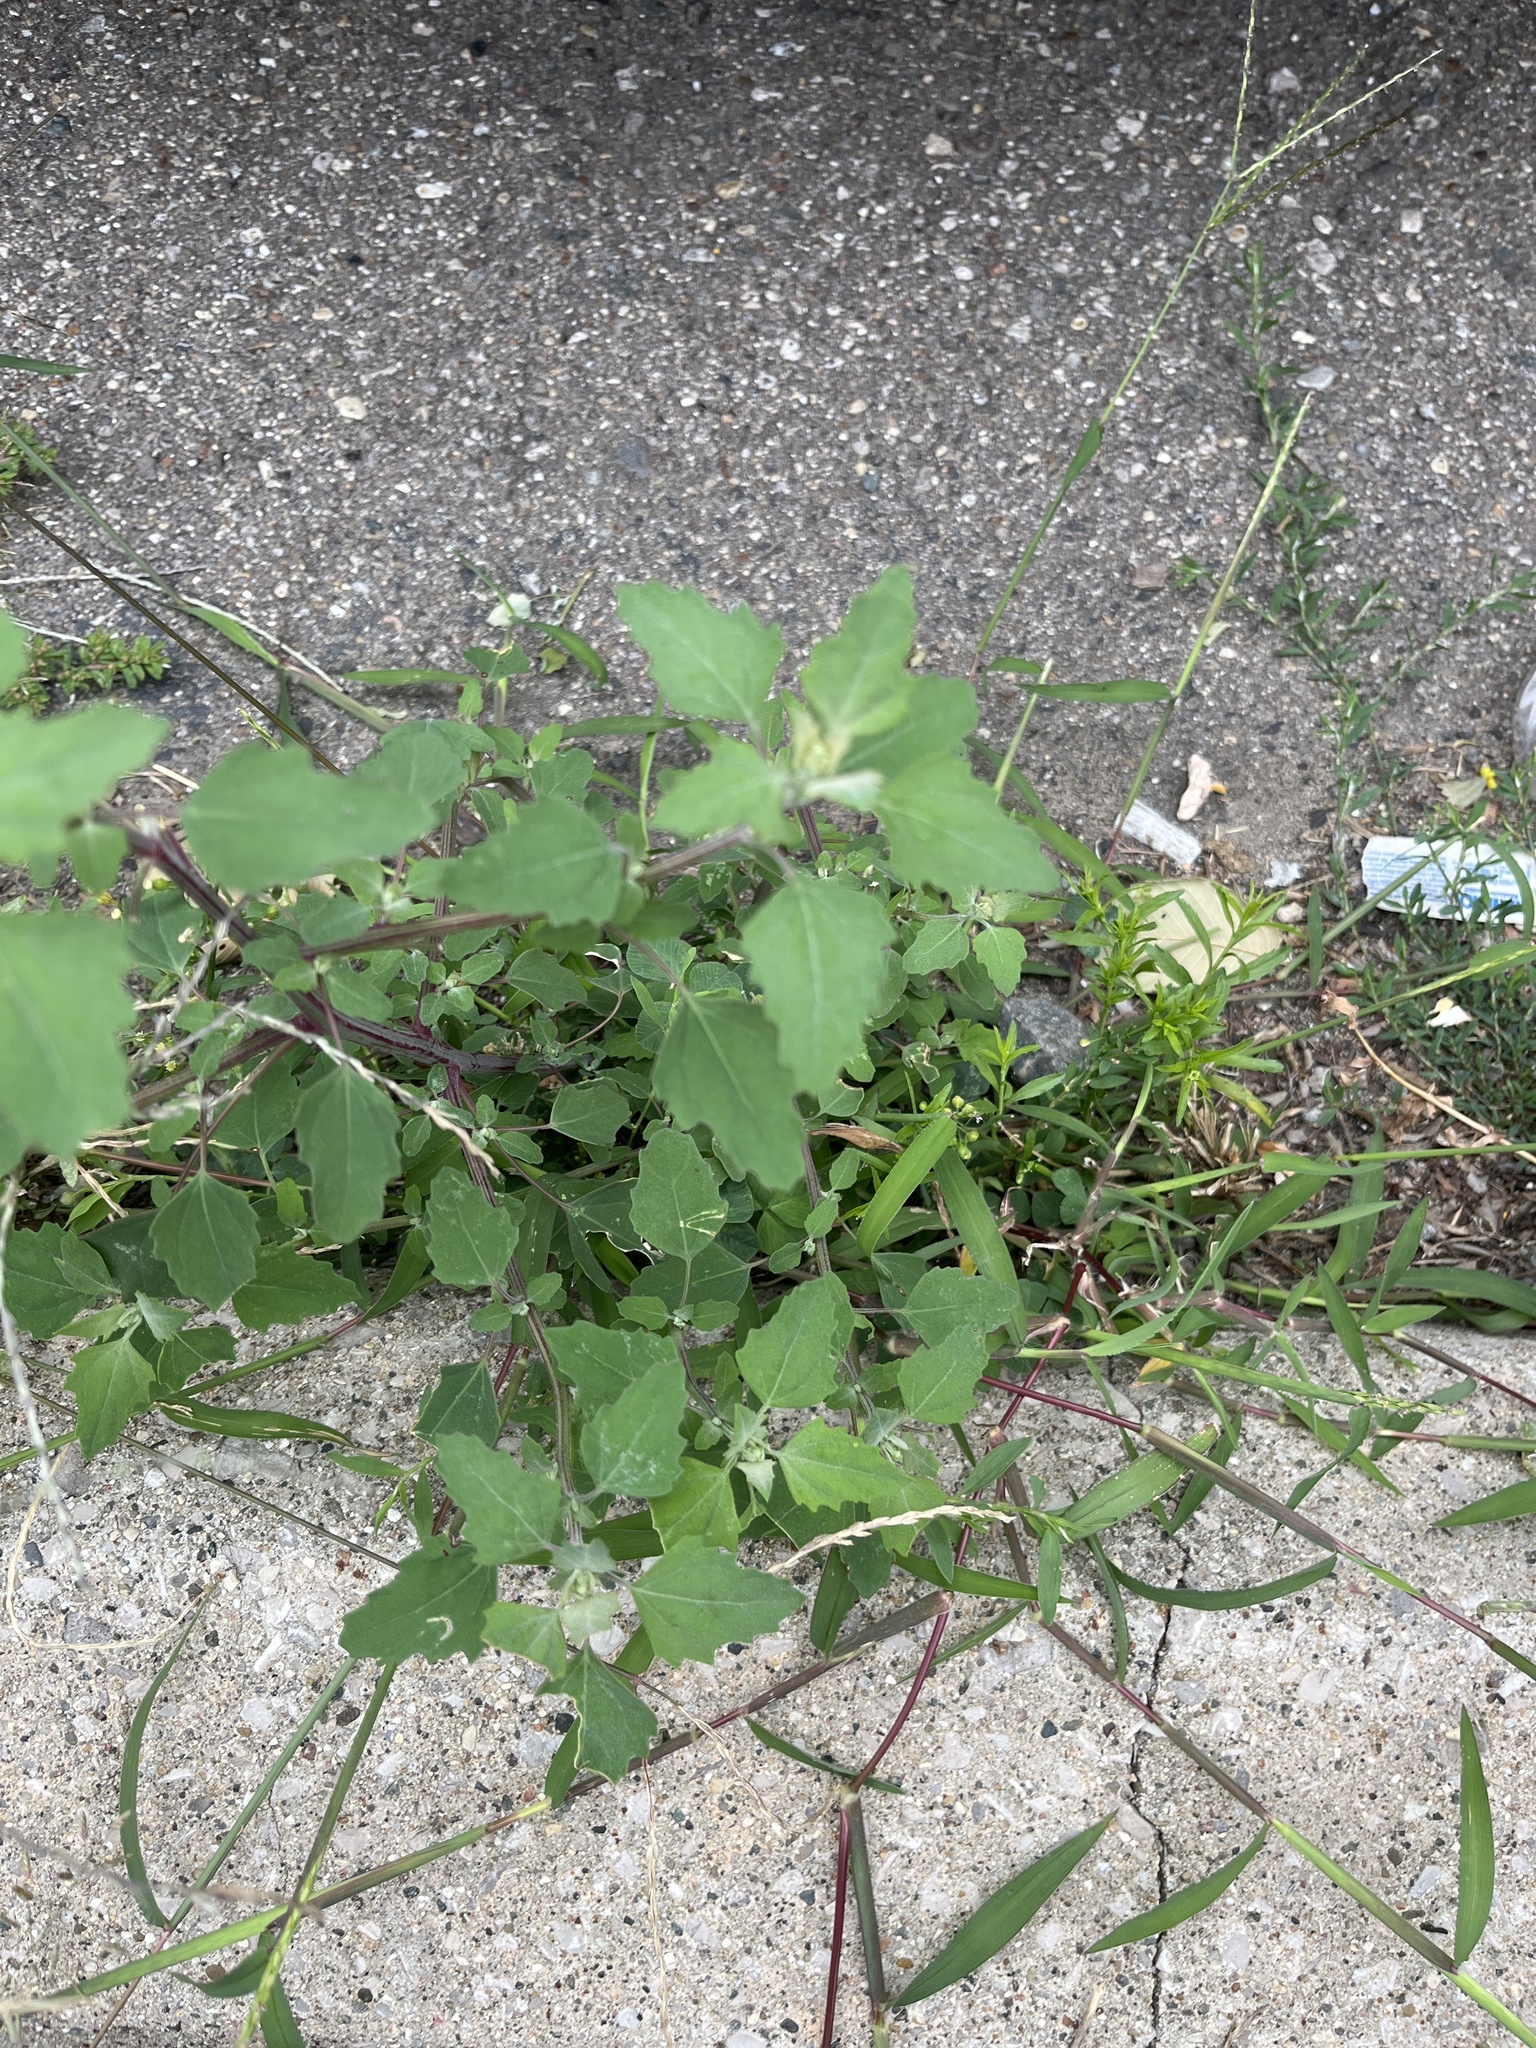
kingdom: Plantae
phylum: Tracheophyta
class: Magnoliopsida
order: Caryophyllales
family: Amaranthaceae
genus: Chenopodium
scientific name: Chenopodium album
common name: Fat-hen
